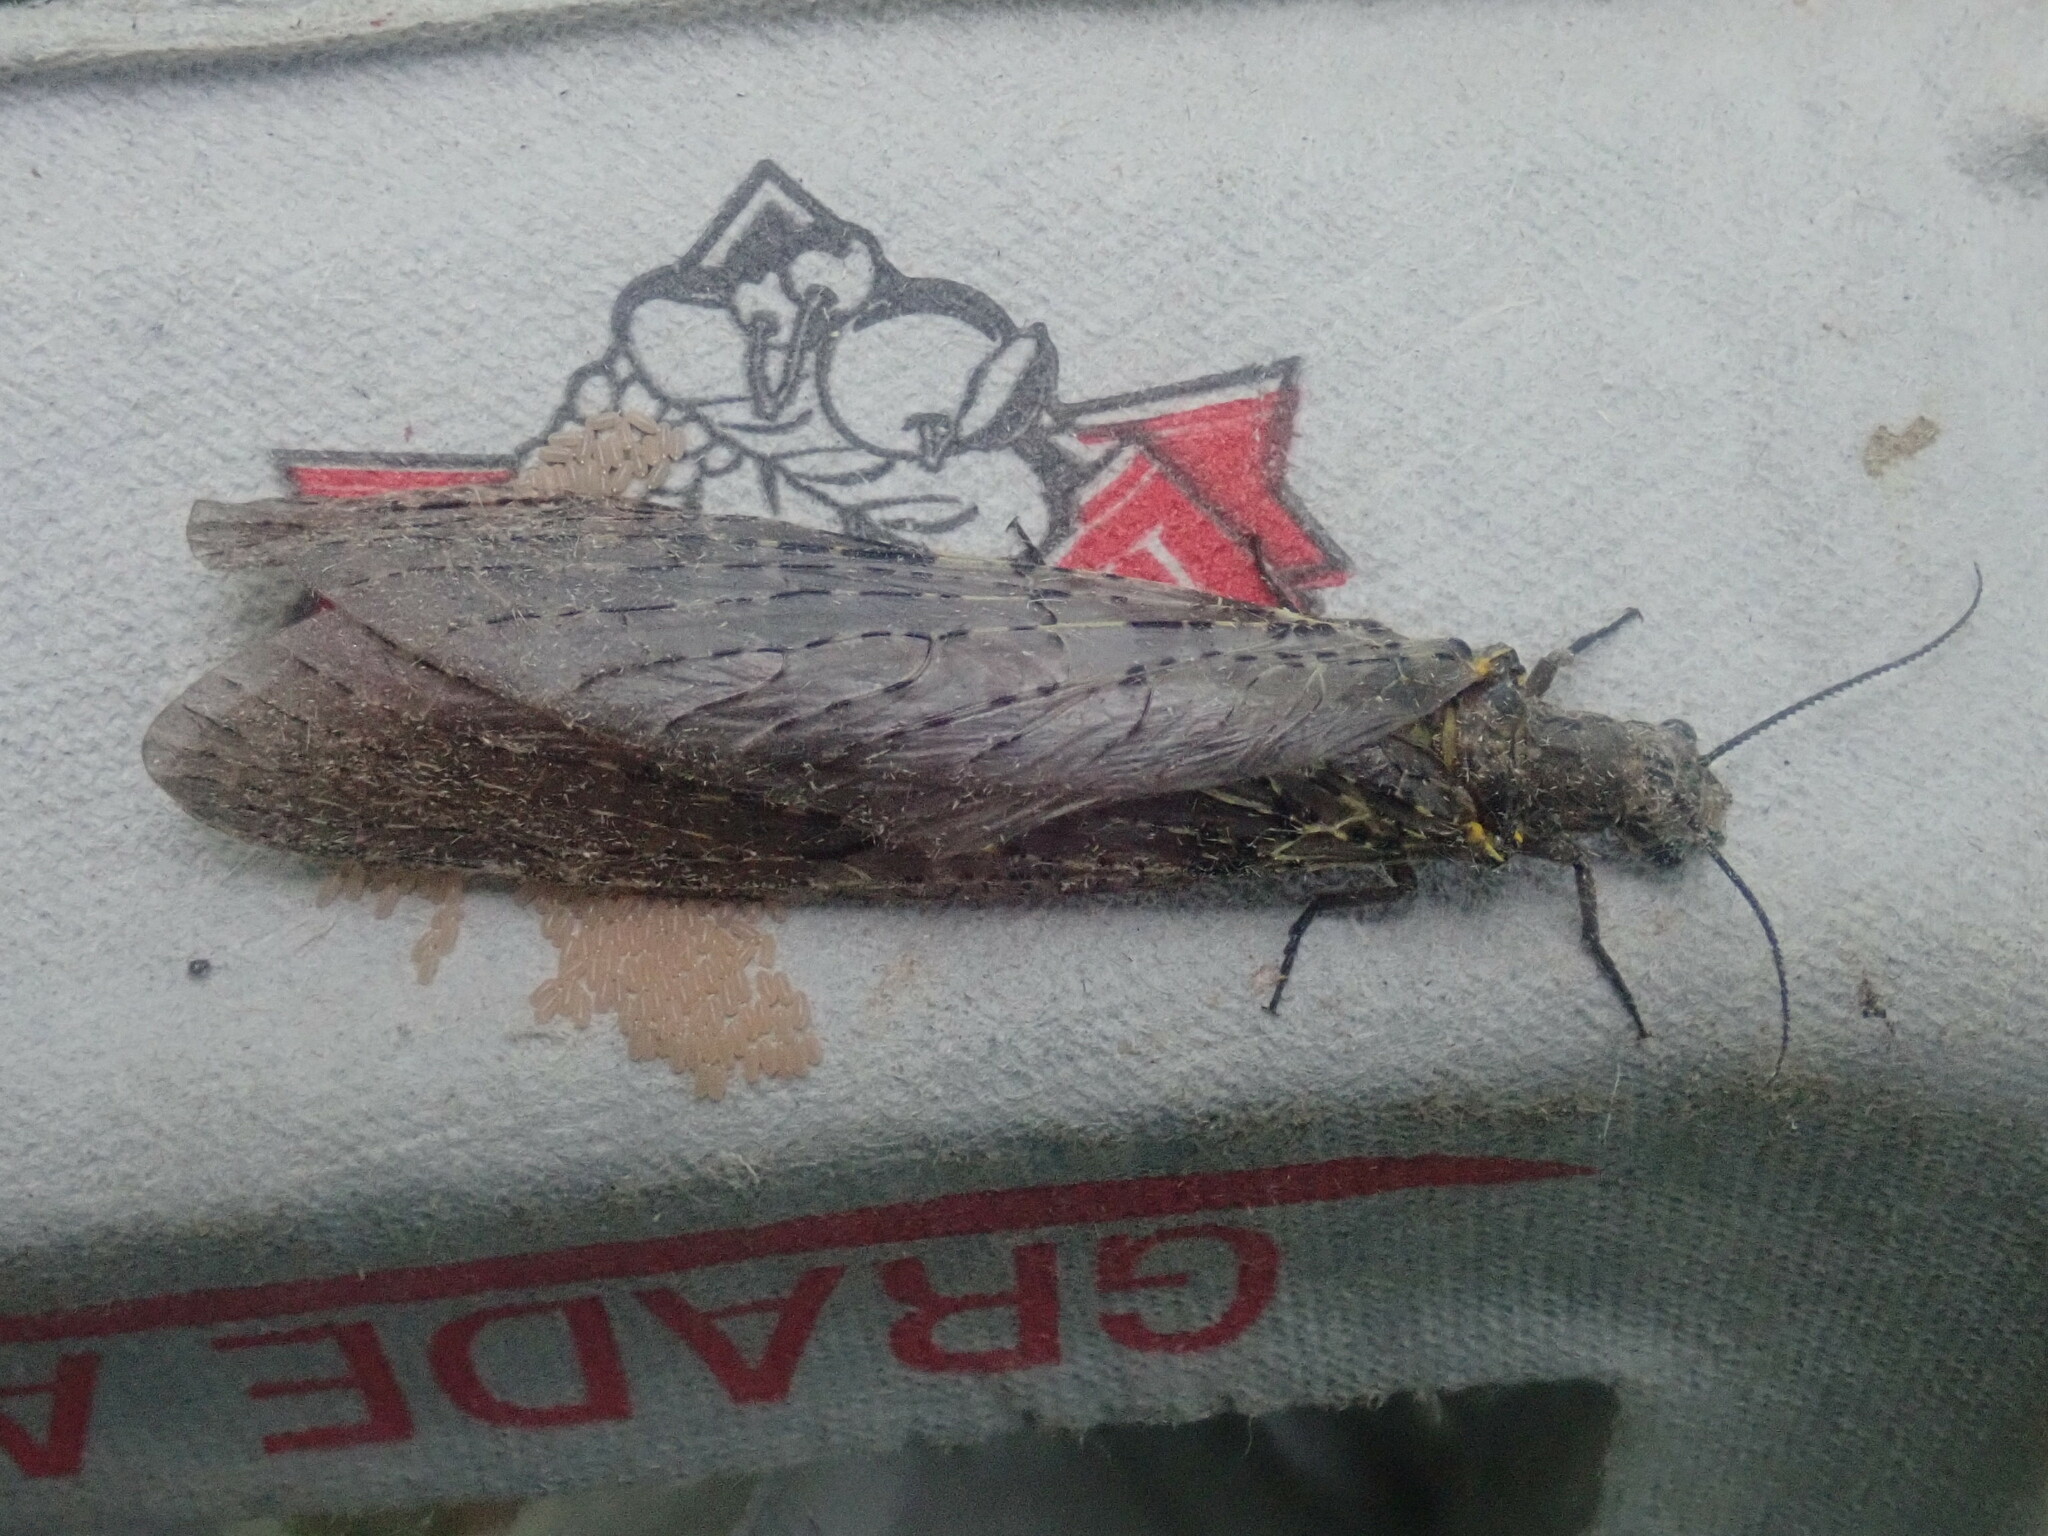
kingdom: Animalia
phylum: Arthropoda
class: Insecta
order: Megaloptera
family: Corydalidae
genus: Chauliodes
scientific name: Chauliodes rastricornis
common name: Spring fishfly
